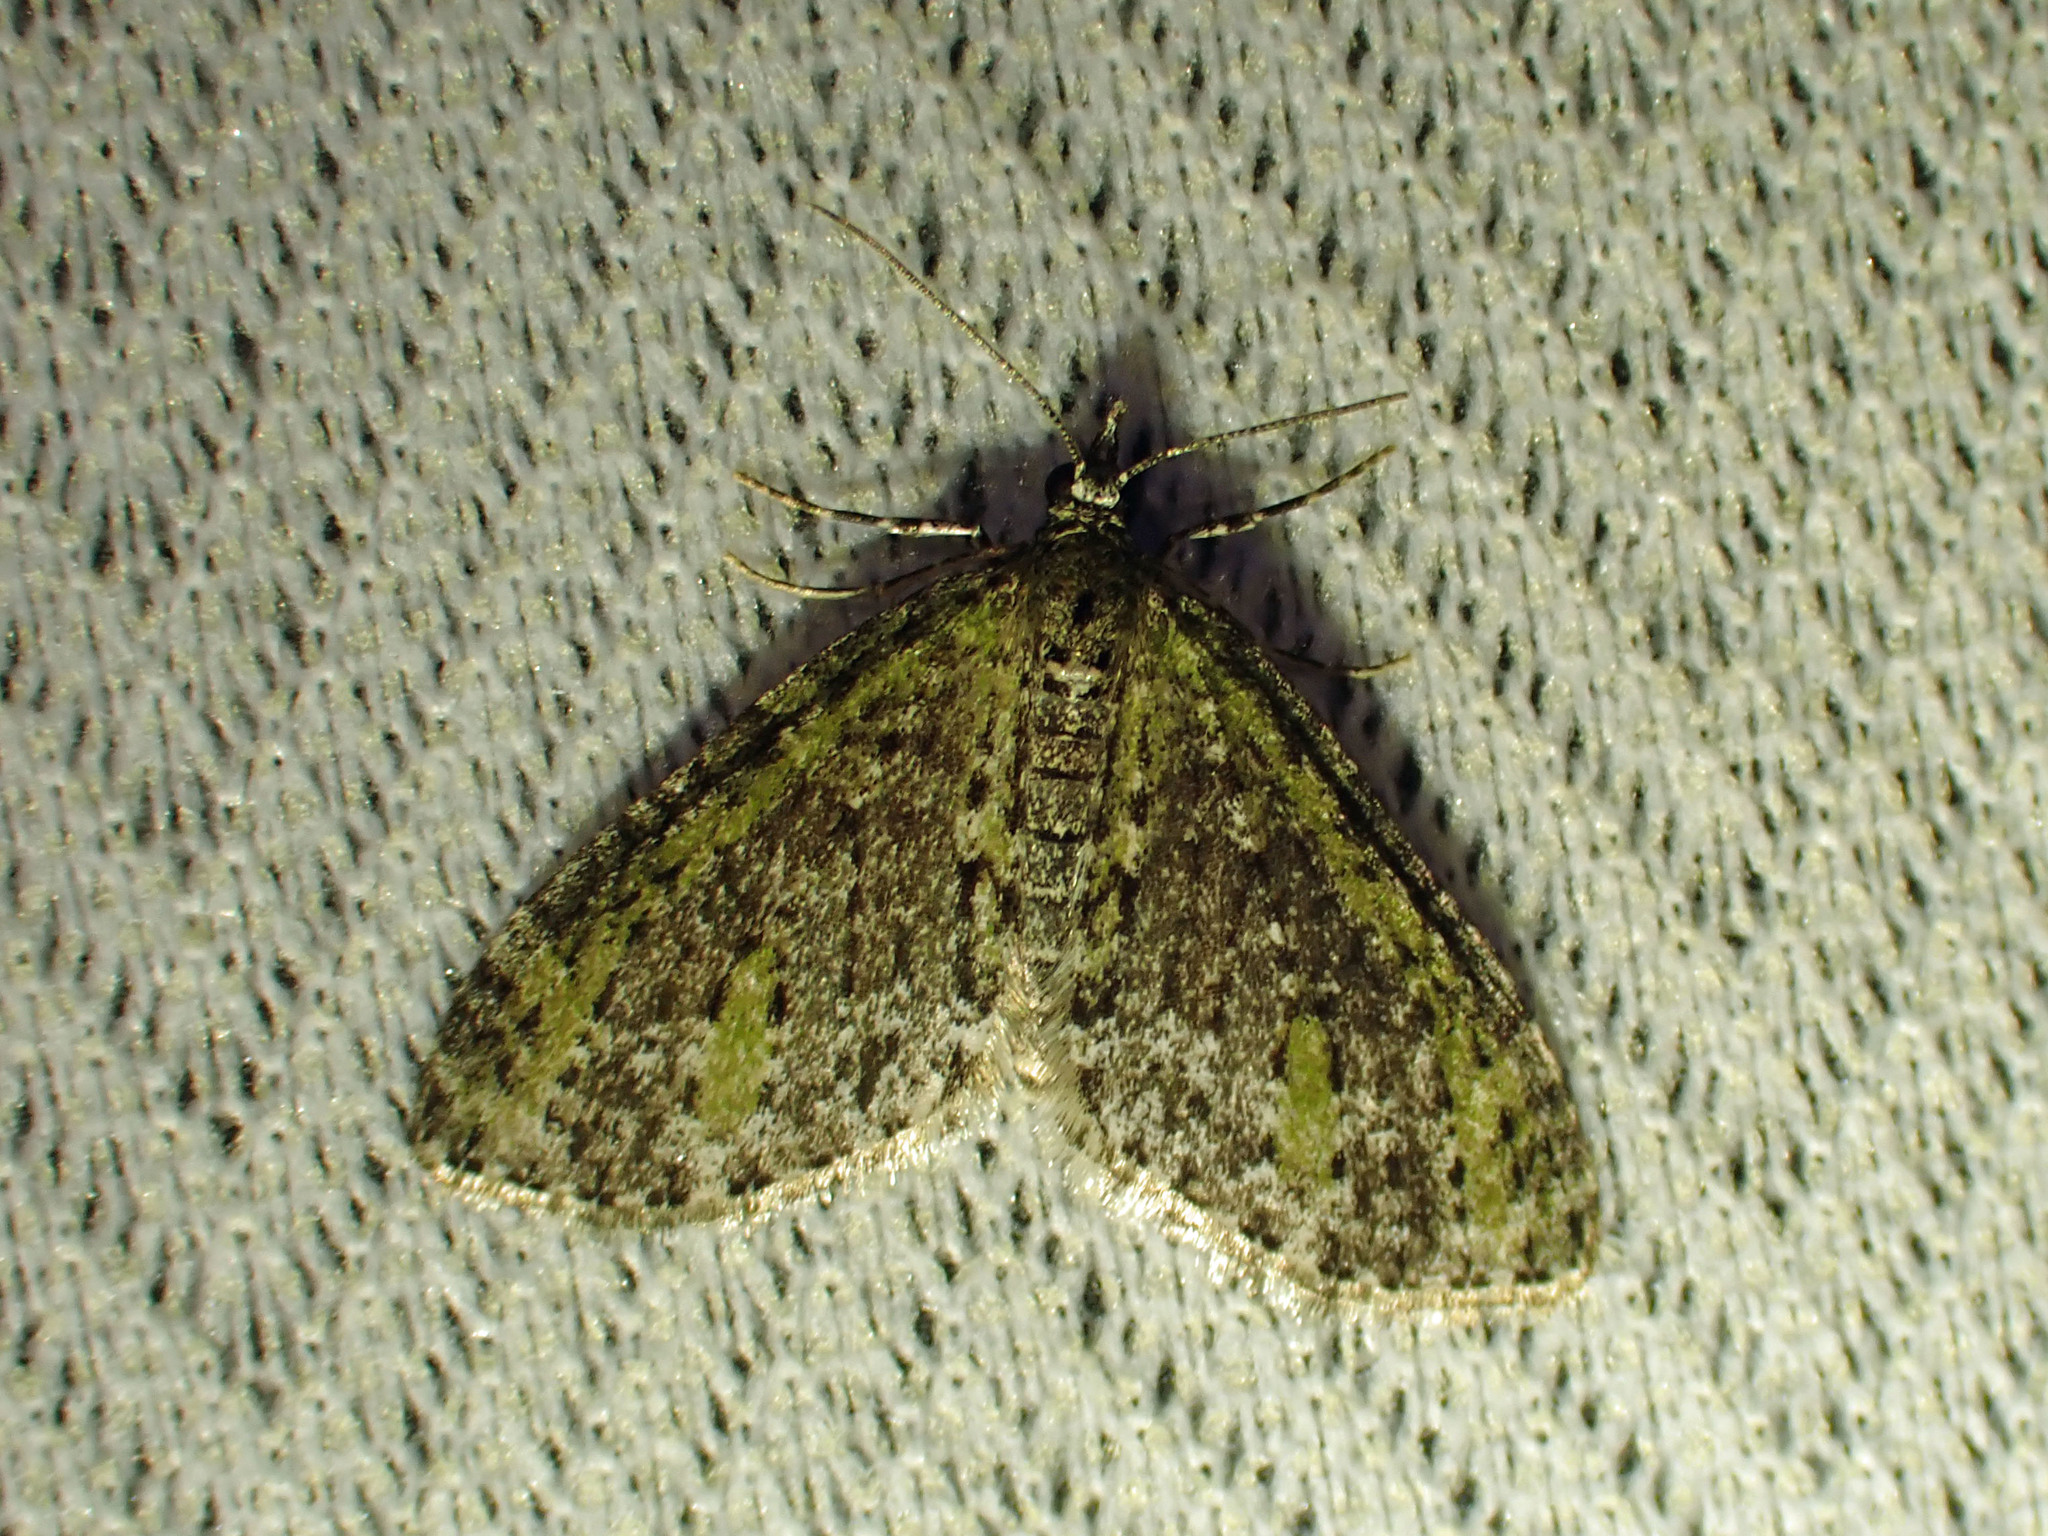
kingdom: Animalia
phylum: Arthropoda
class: Insecta
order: Lepidoptera
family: Geometridae
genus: Acasis
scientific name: Acasis viridata
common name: Olive-and-black carpet moth
